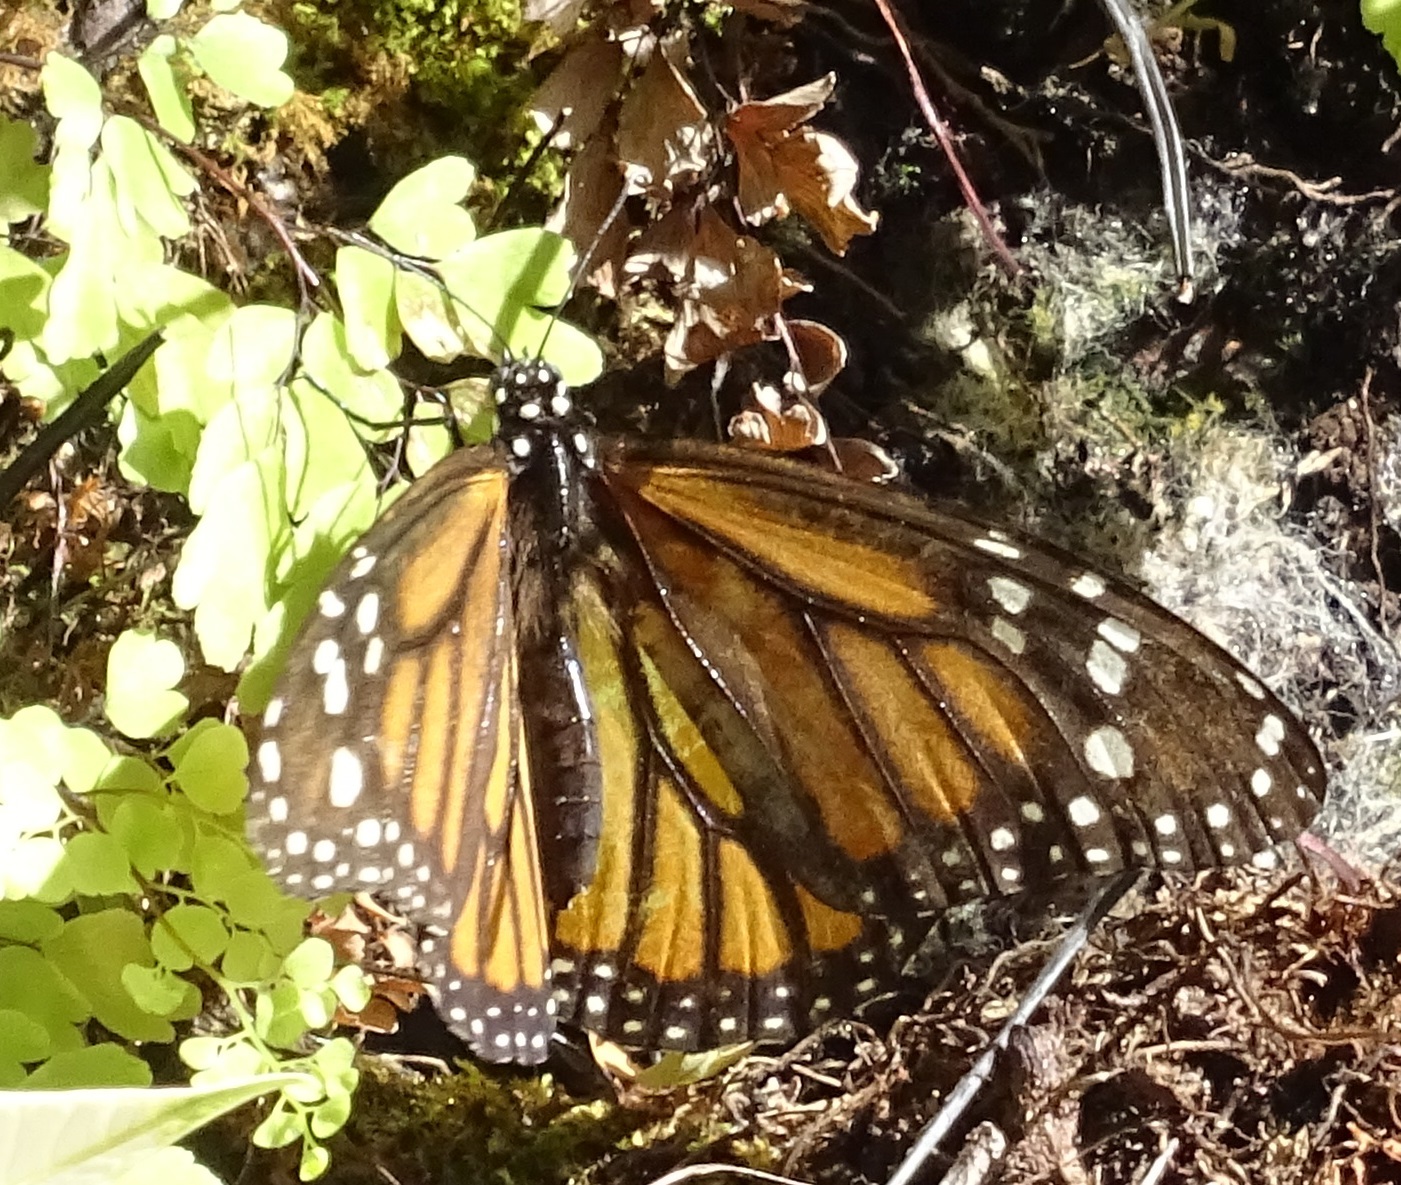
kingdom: Animalia
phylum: Arthropoda
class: Insecta
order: Lepidoptera
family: Nymphalidae
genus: Danaus
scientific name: Danaus plexippus
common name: Monarch
